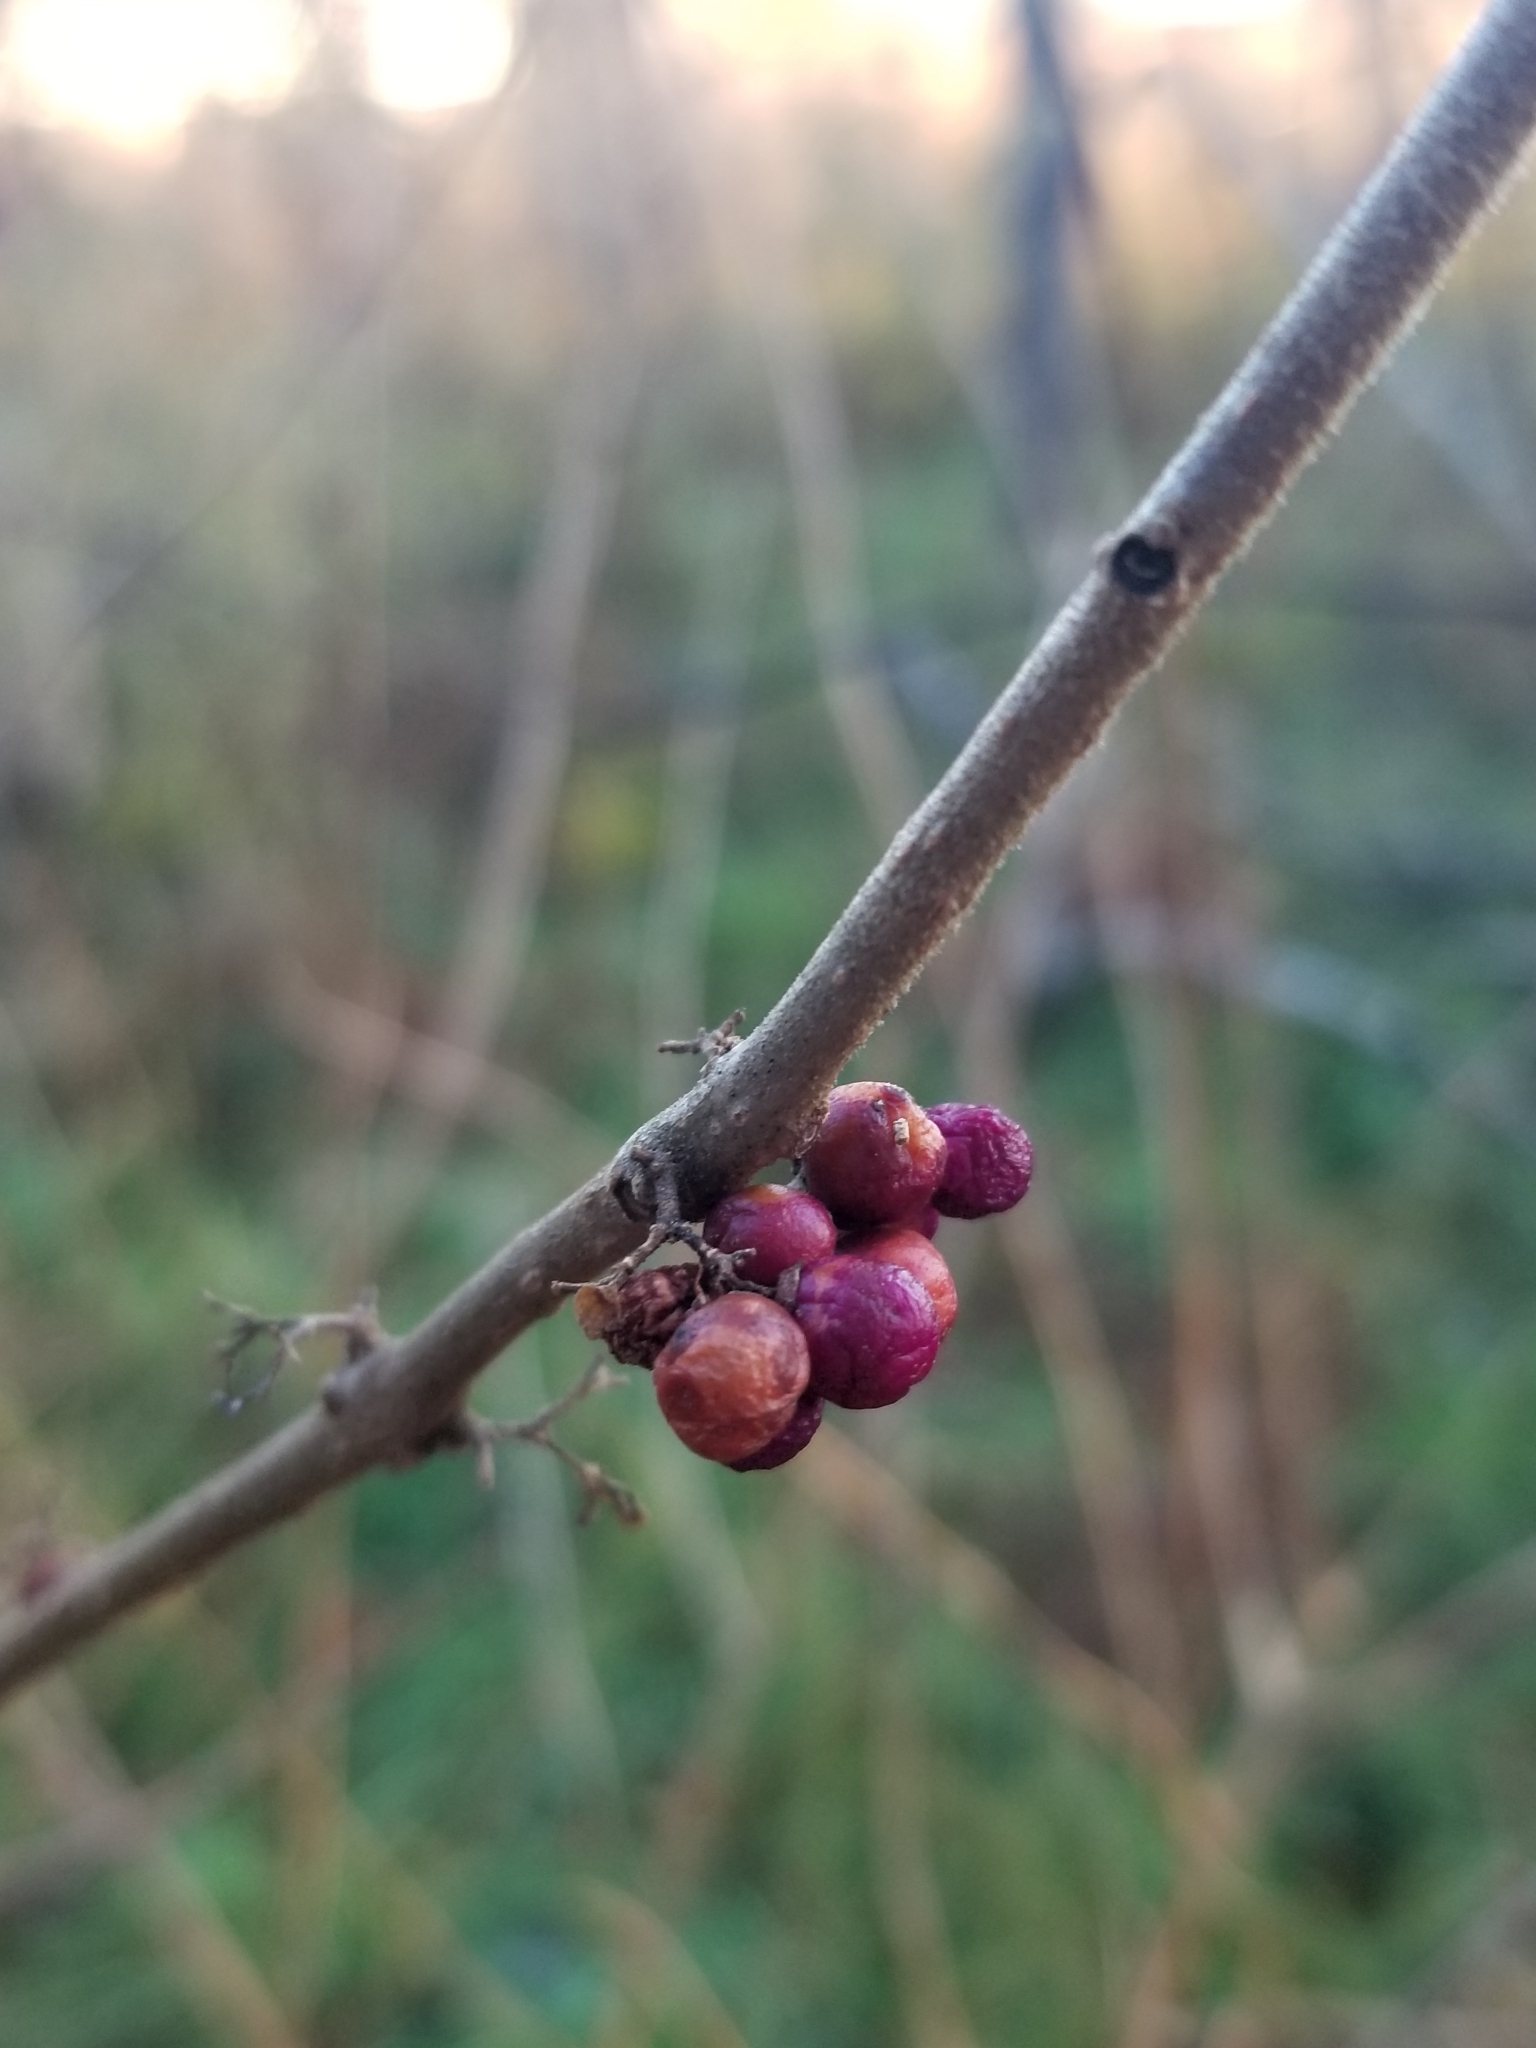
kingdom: Plantae
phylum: Tracheophyta
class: Magnoliopsida
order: Lamiales
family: Lamiaceae
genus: Callicarpa
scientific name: Callicarpa americana
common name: American beautyberry
